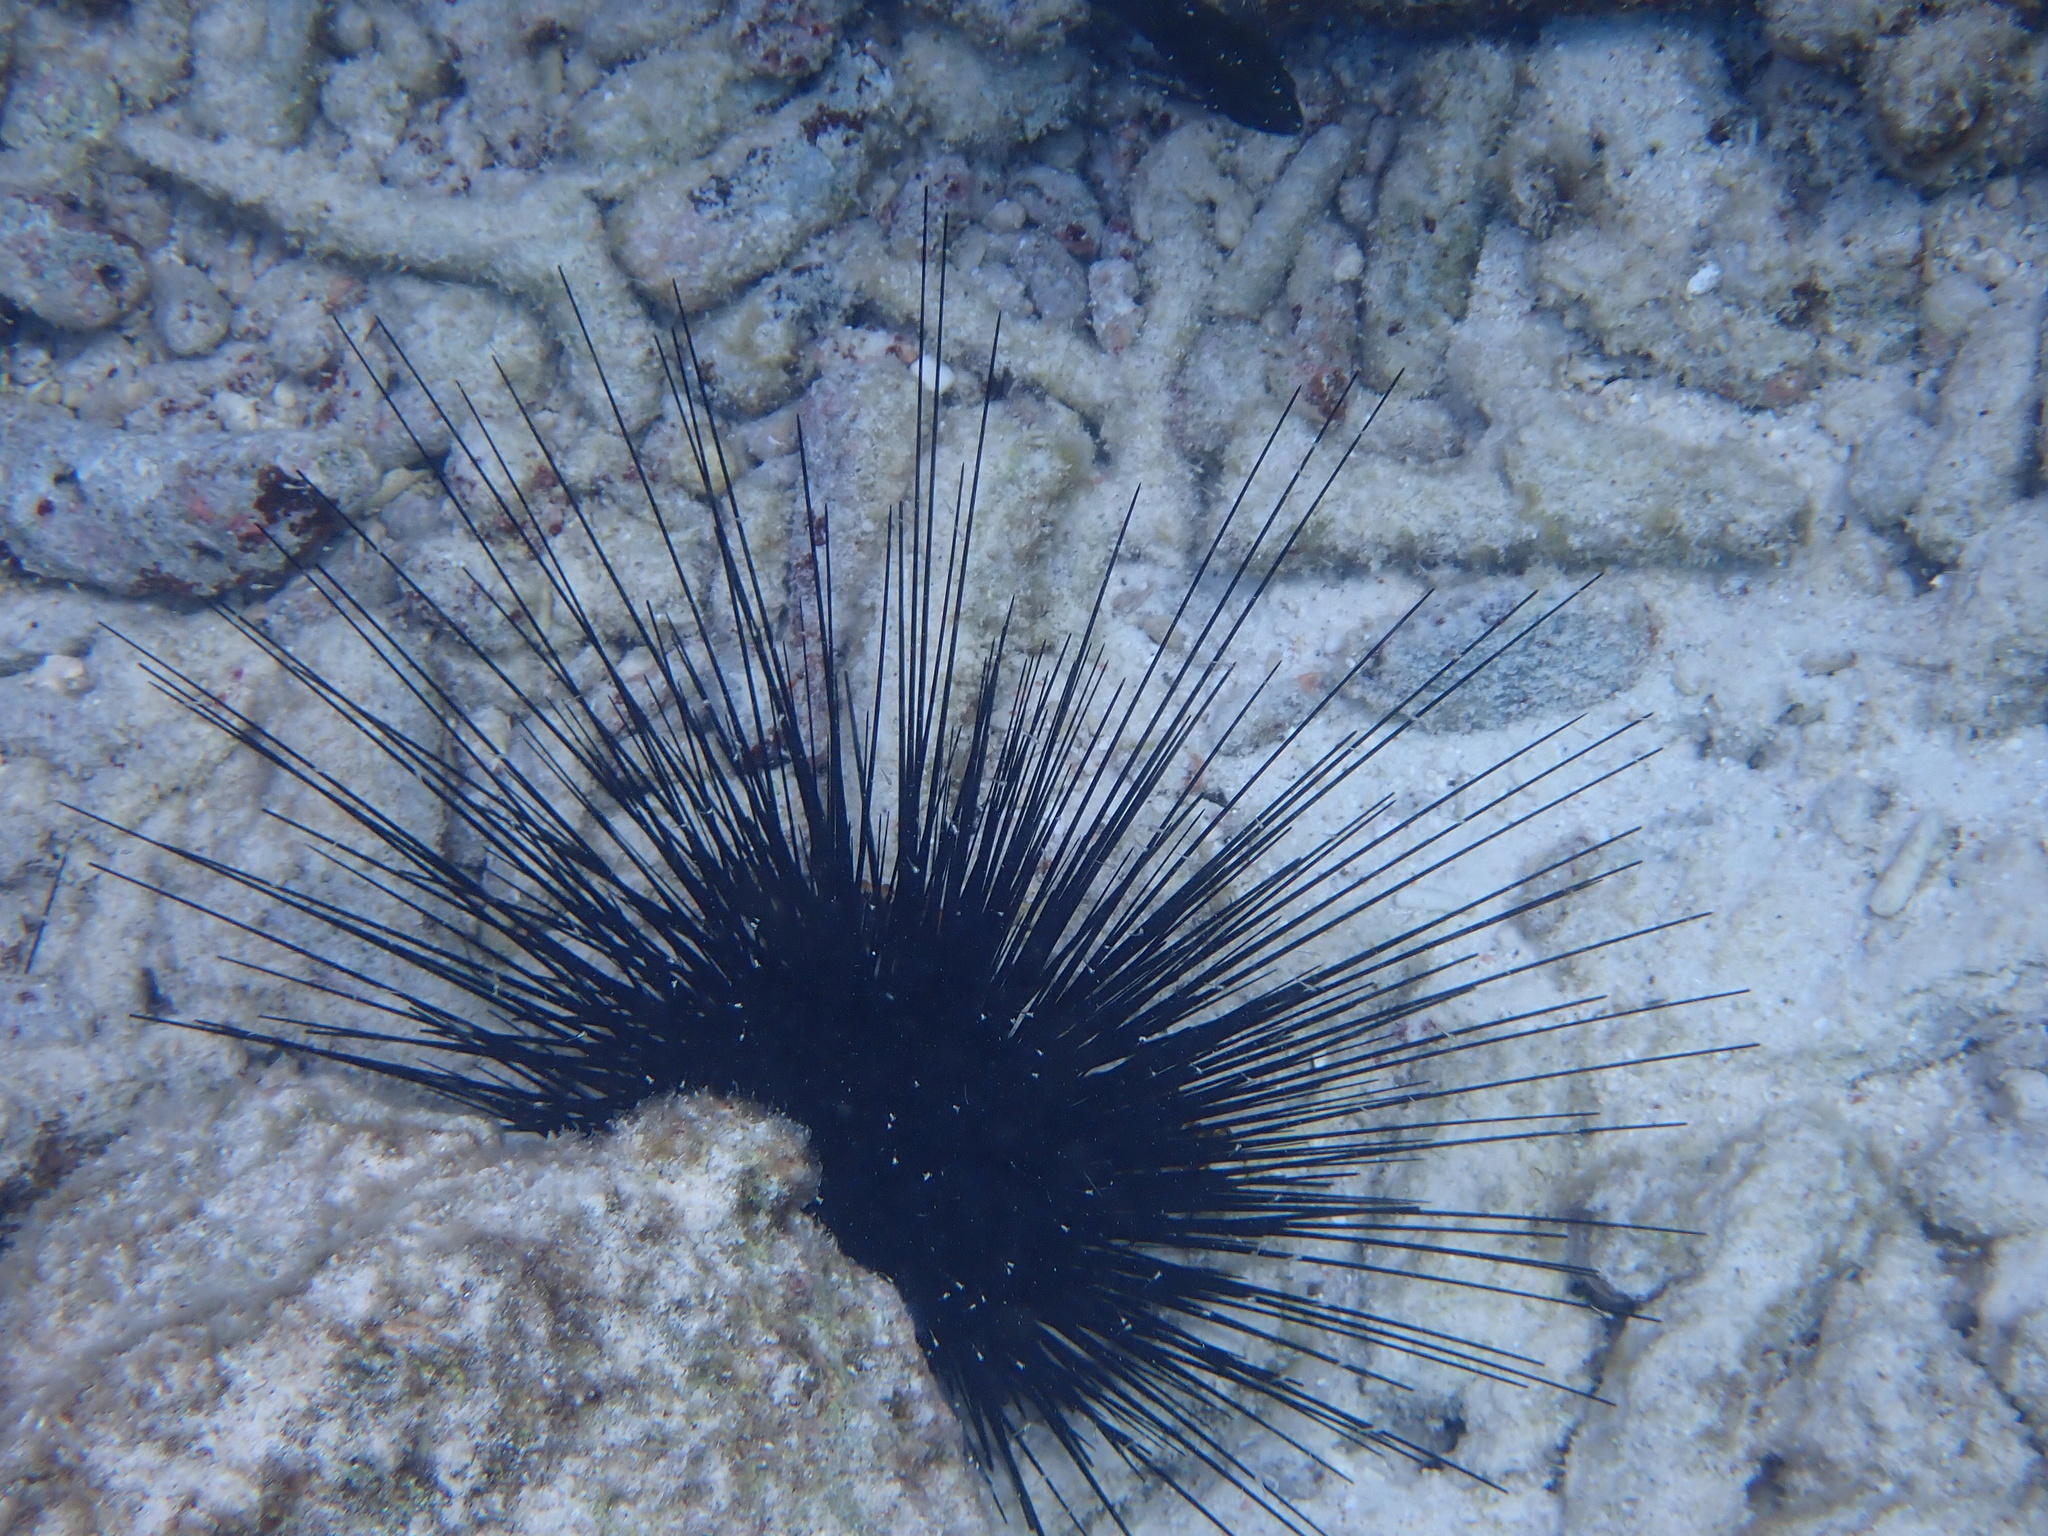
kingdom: Animalia
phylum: Echinodermata
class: Echinoidea
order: Diadematoida
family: Diadematidae
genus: Diadema
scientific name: Diadema antillarum
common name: Spiny urchin
